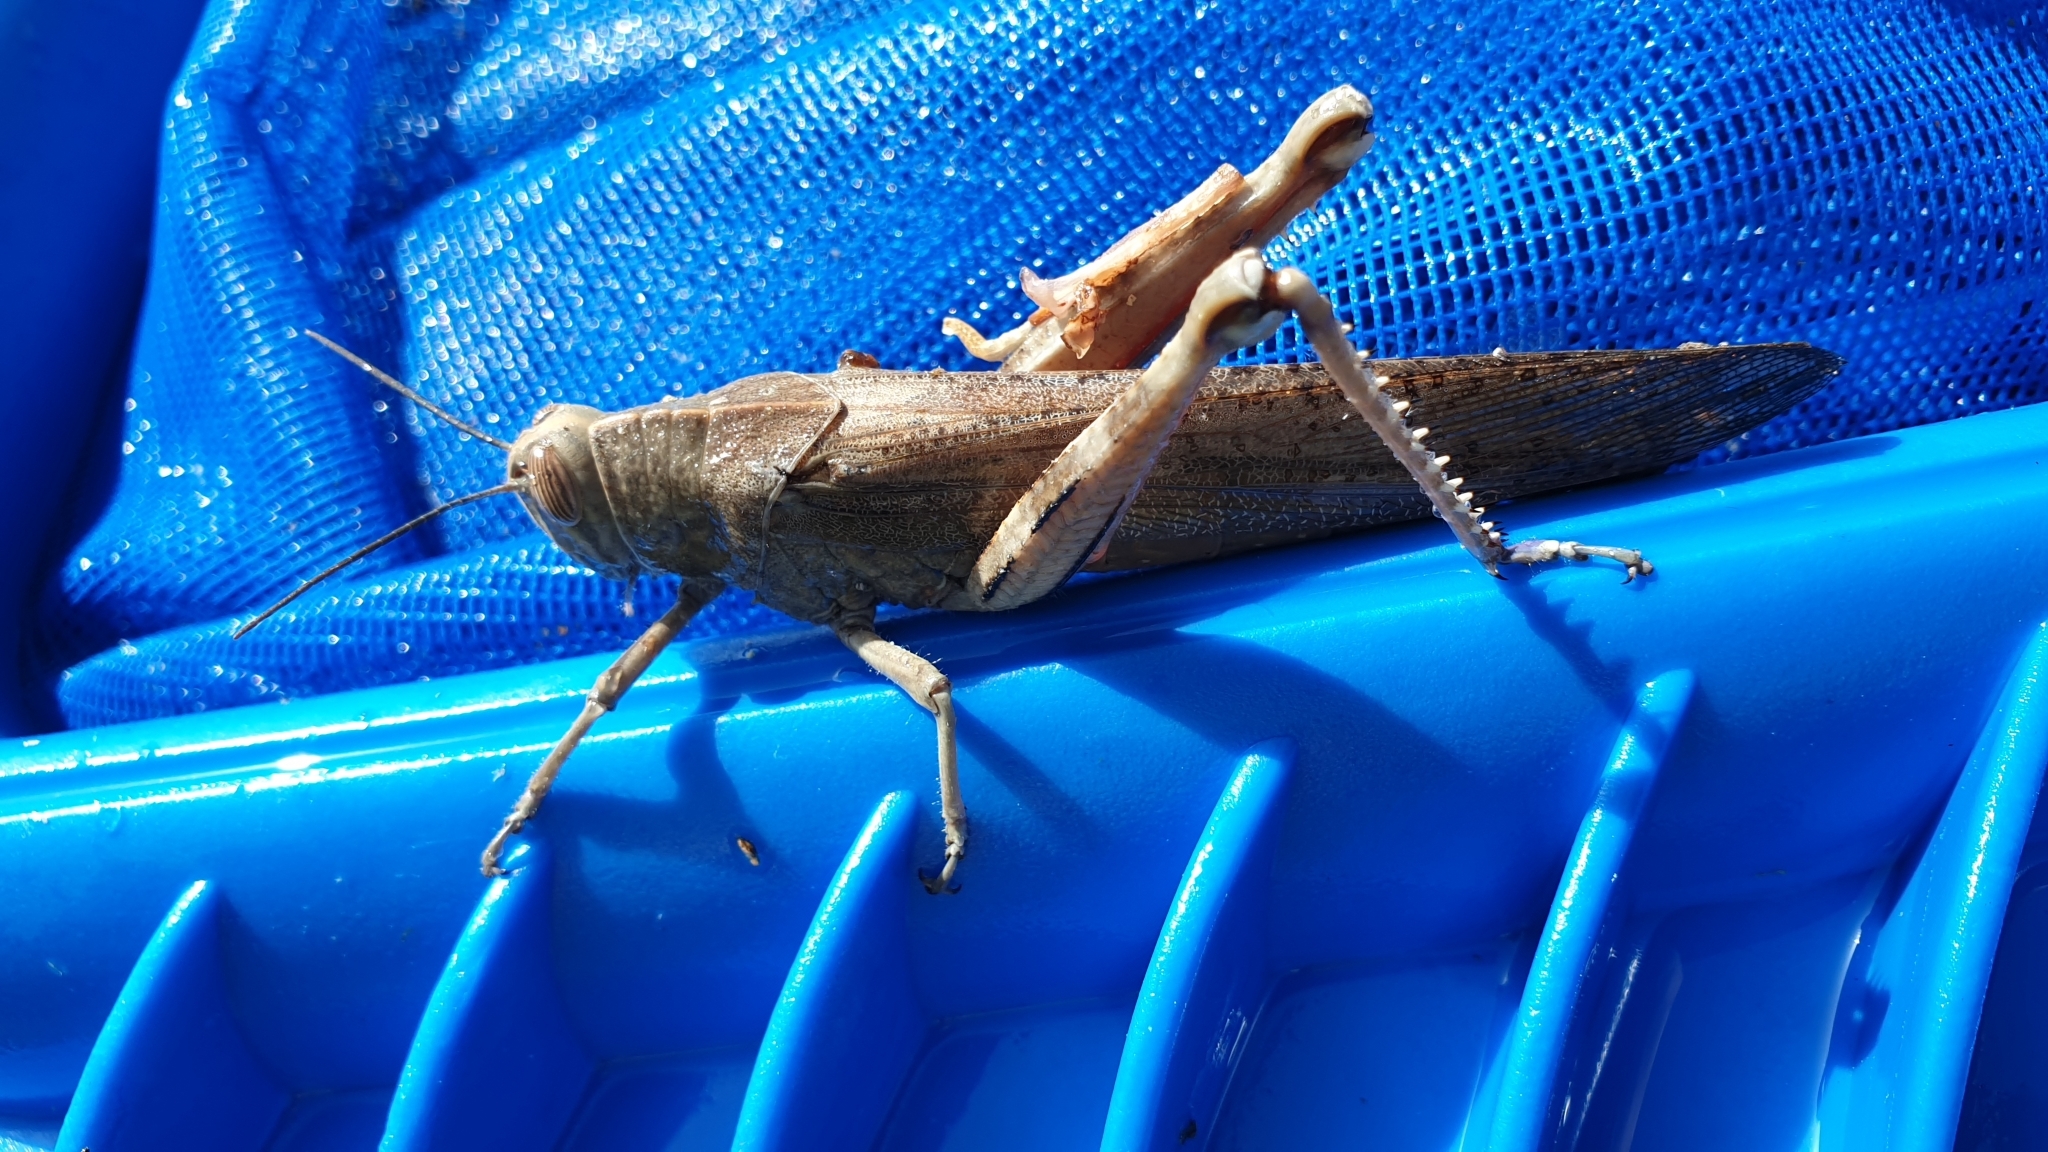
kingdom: Animalia
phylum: Arthropoda
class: Insecta
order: Orthoptera
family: Acrididae
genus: Anacridium
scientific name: Anacridium aegyptium
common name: Egyptian grasshopper
